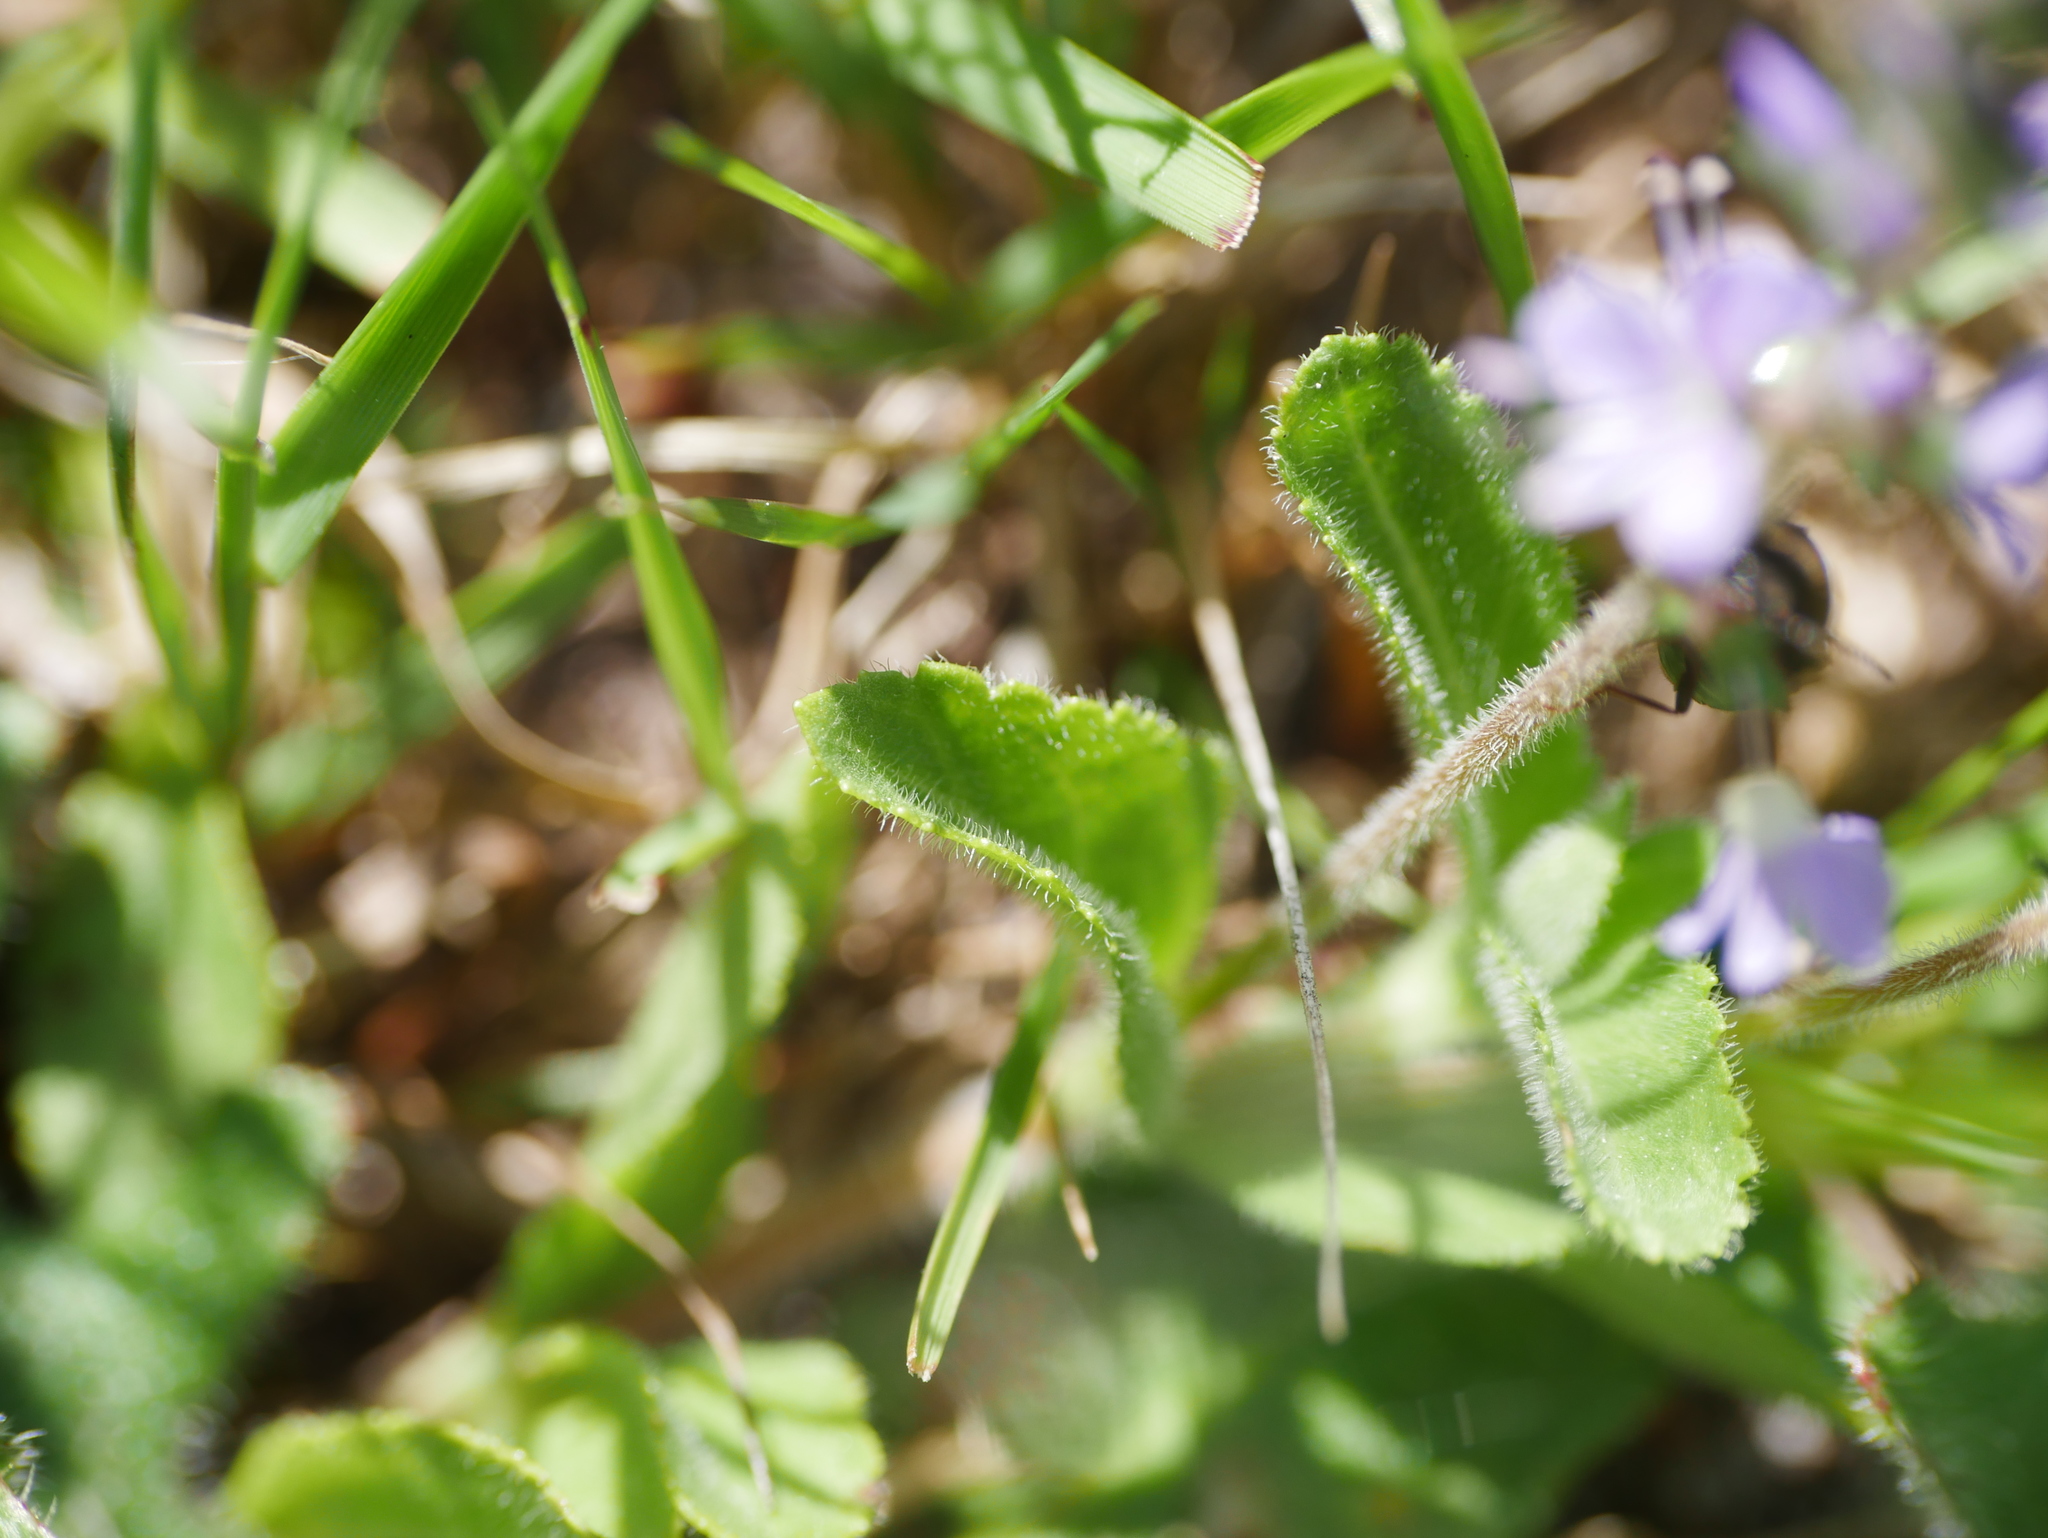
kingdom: Plantae
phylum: Tracheophyta
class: Magnoliopsida
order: Lamiales
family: Plantaginaceae
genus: Veronica
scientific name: Veronica officinalis
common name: Common speedwell
